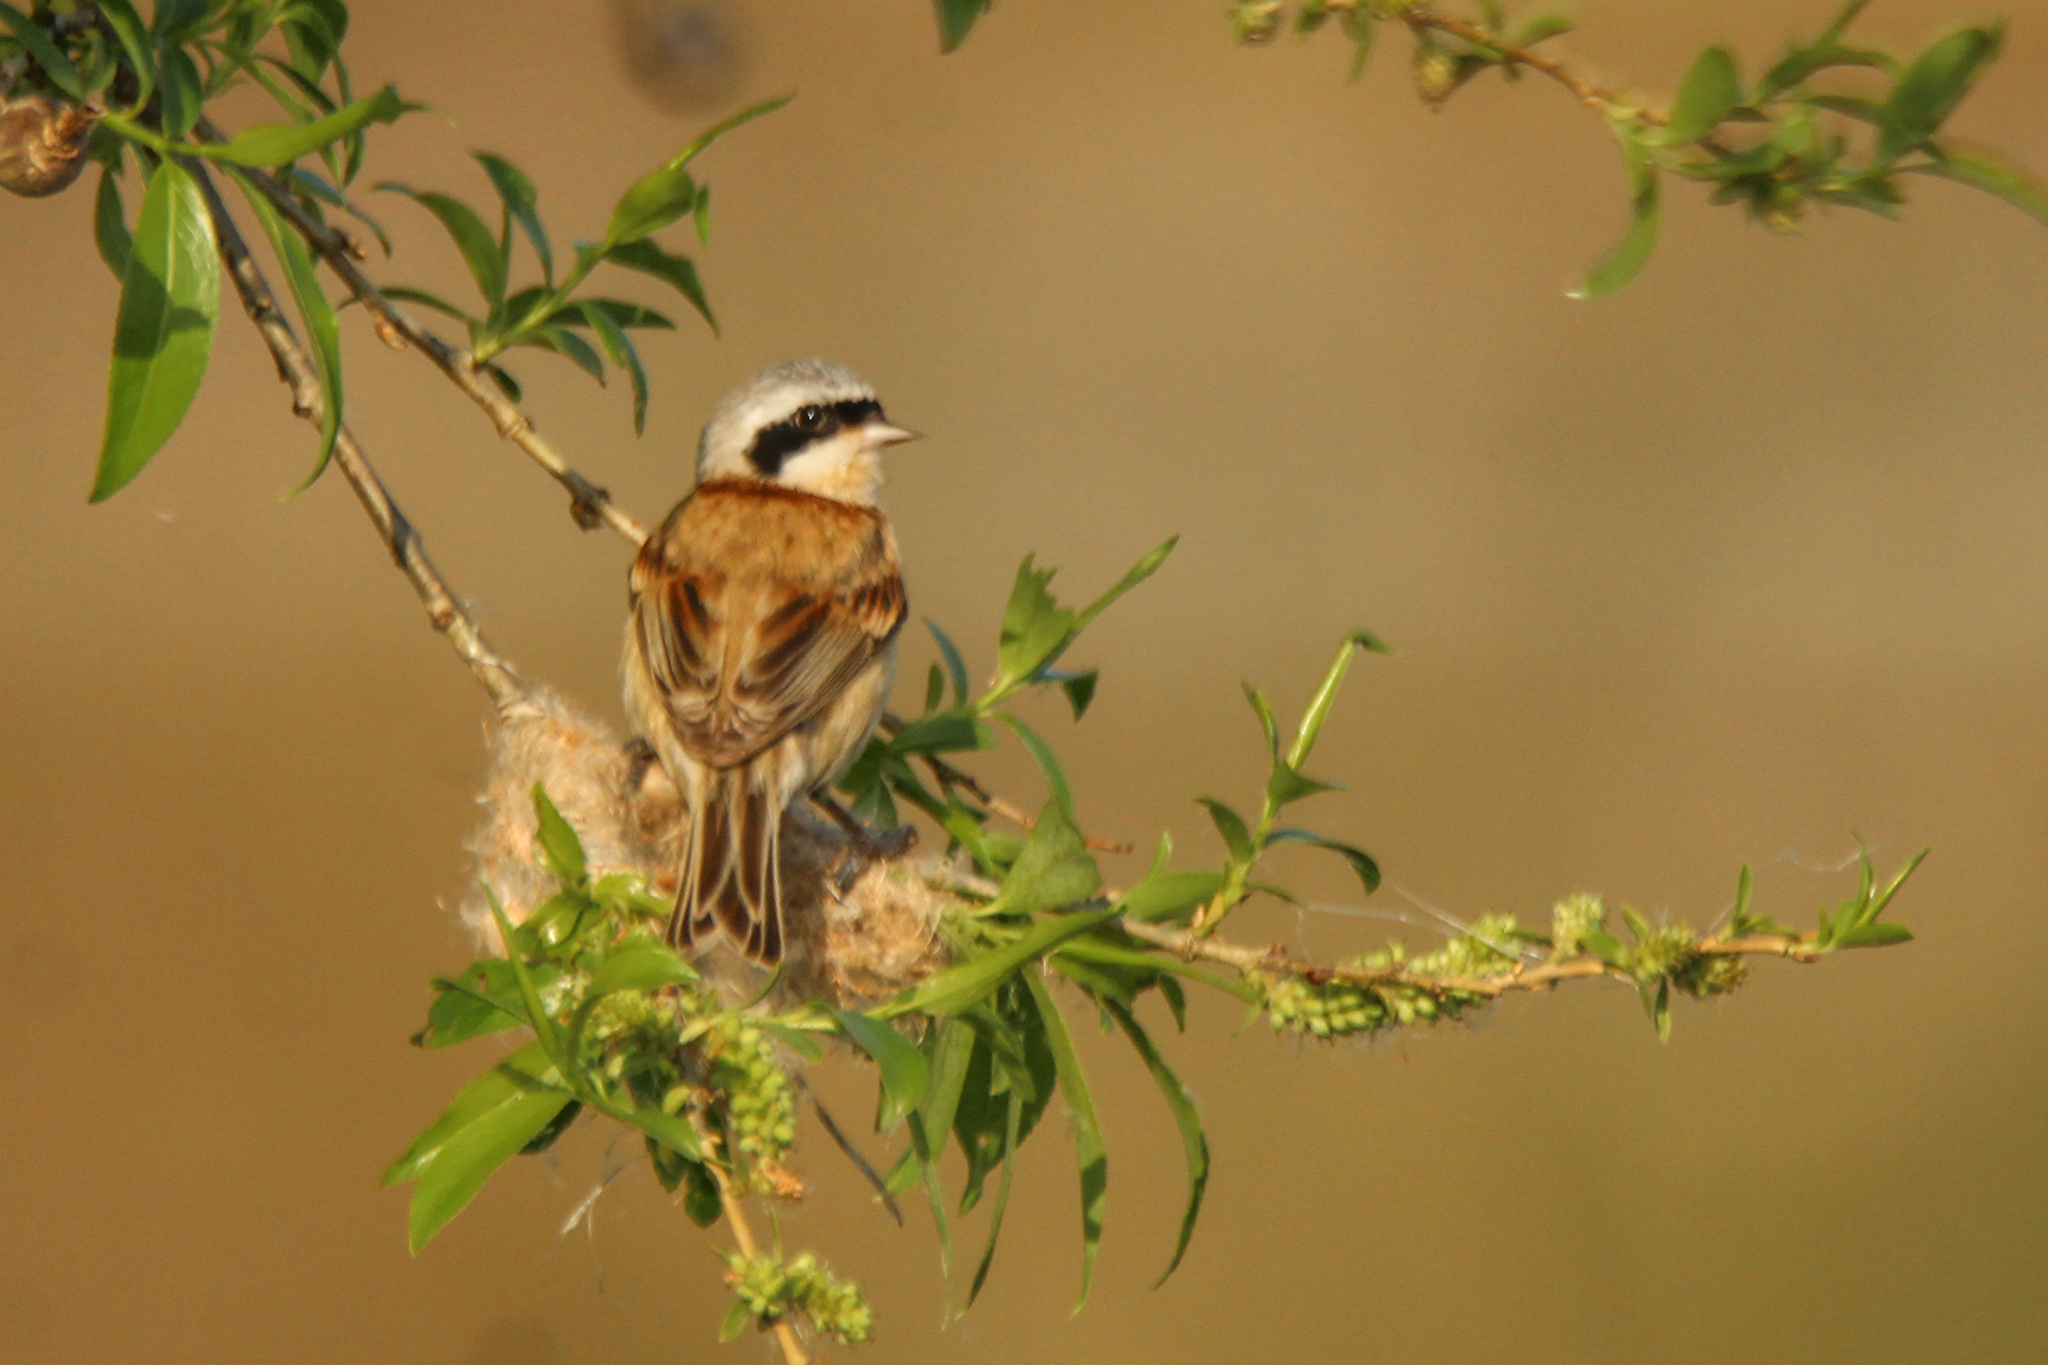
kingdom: Animalia
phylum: Chordata
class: Aves
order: Passeriformes
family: Remizidae
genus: Remiz
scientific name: Remiz consobrinus
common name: Chinese penduline tit
